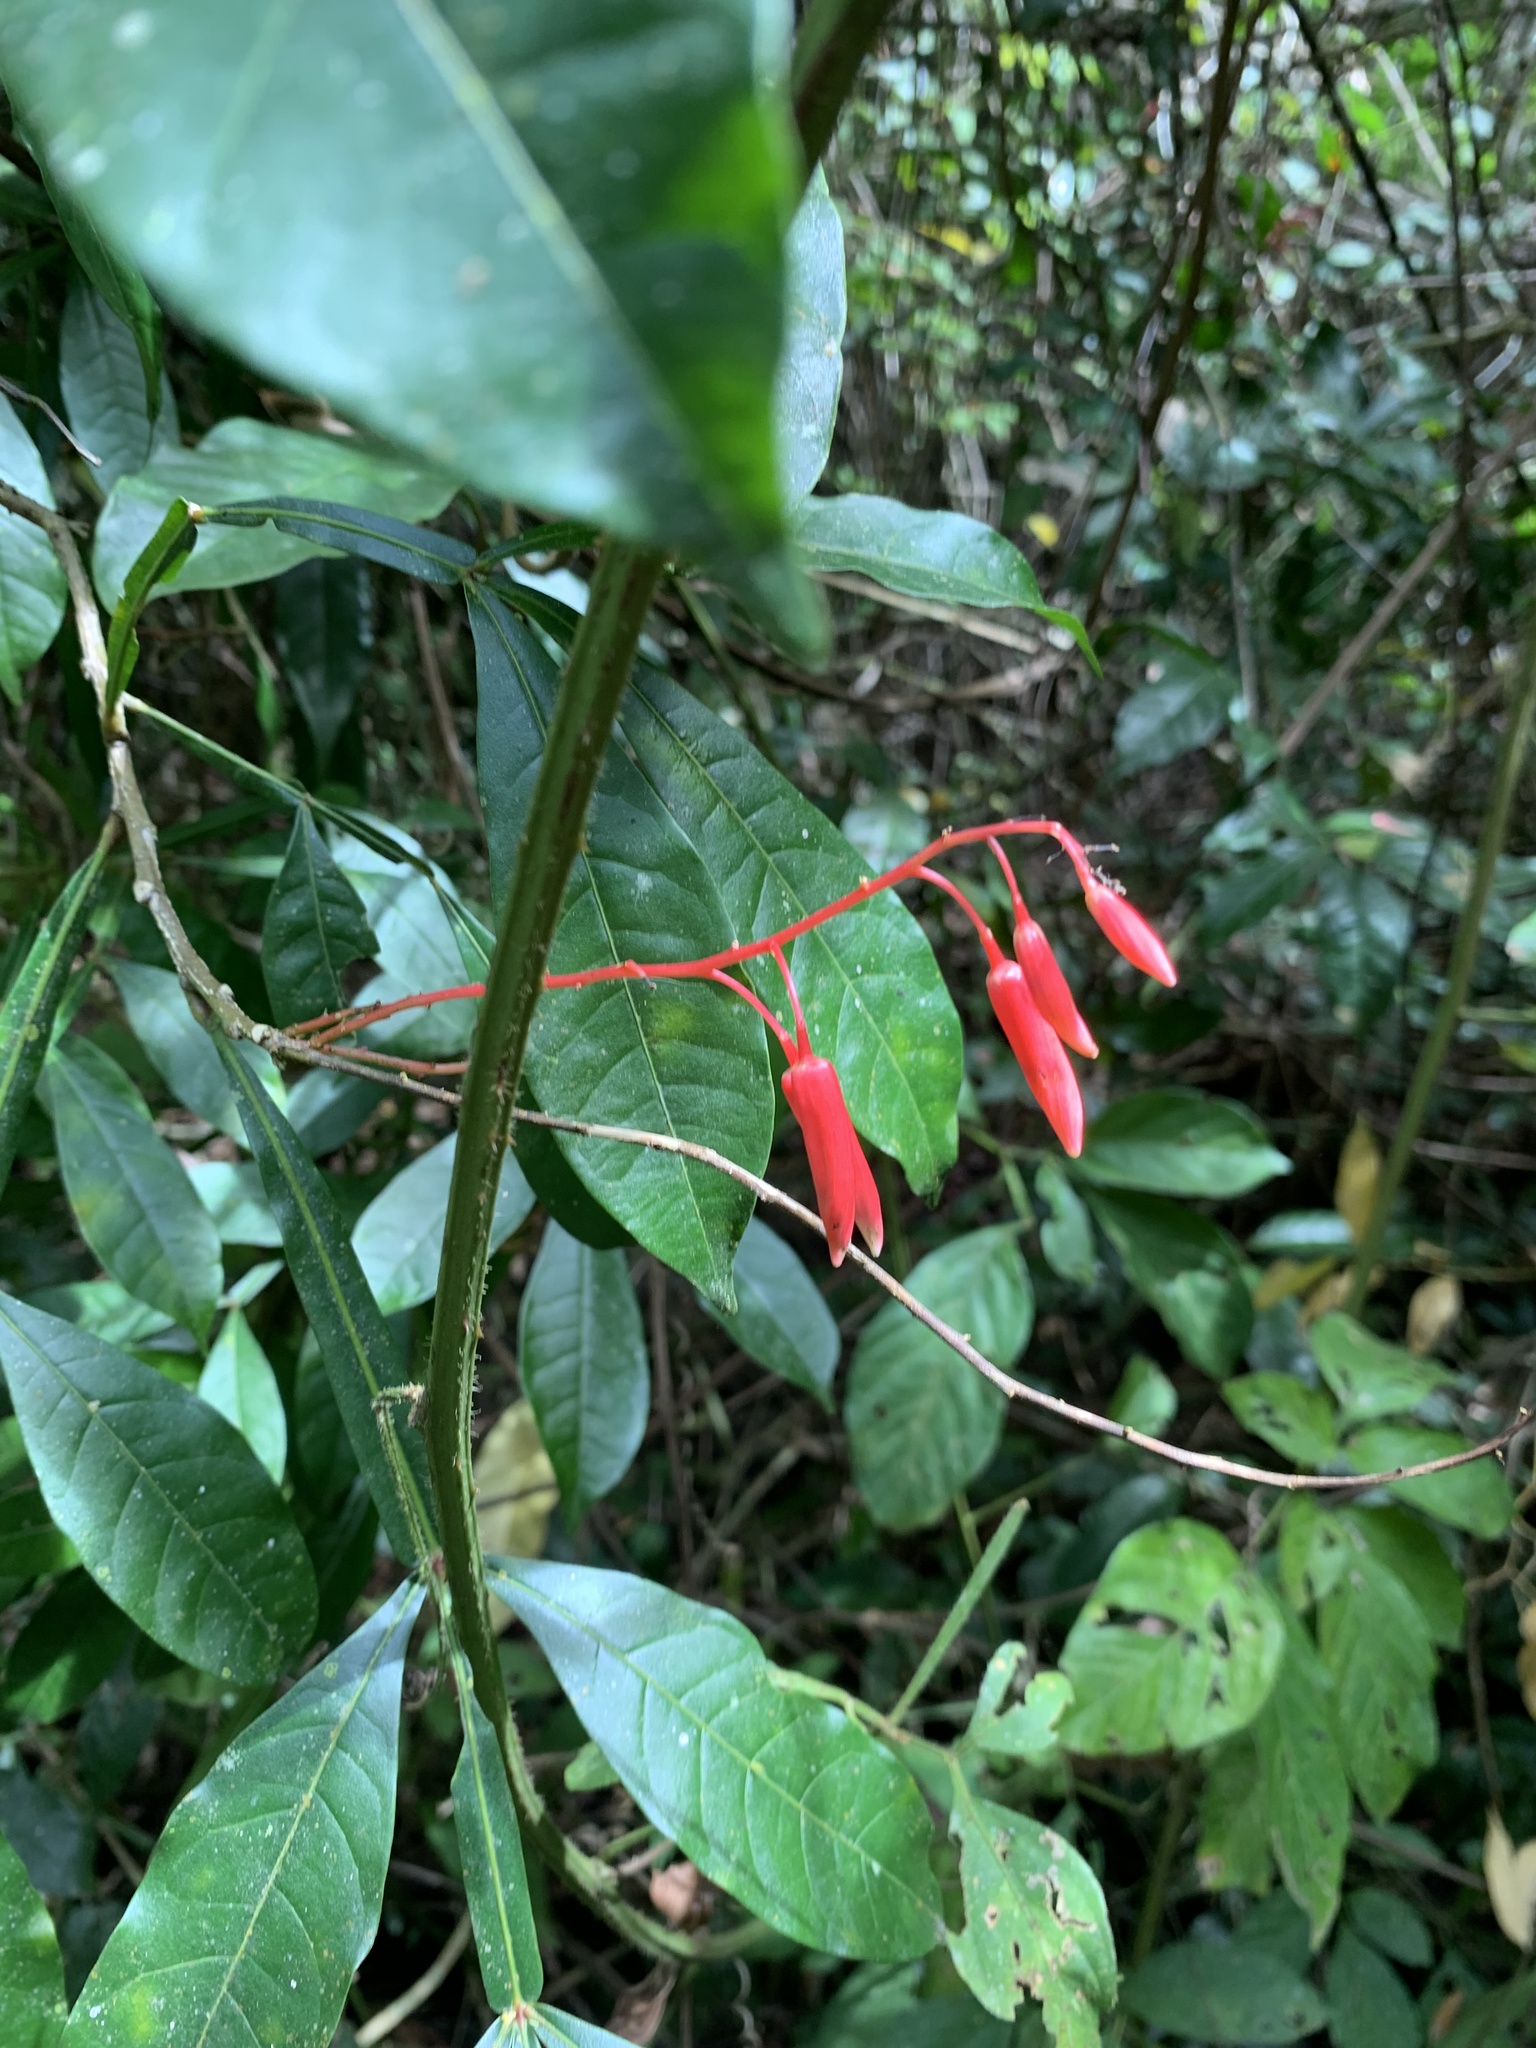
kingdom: Plantae
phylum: Tracheophyta
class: Magnoliopsida
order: Sapindales
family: Simaroubaceae
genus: Quassia
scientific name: Quassia amara
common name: Quassia
